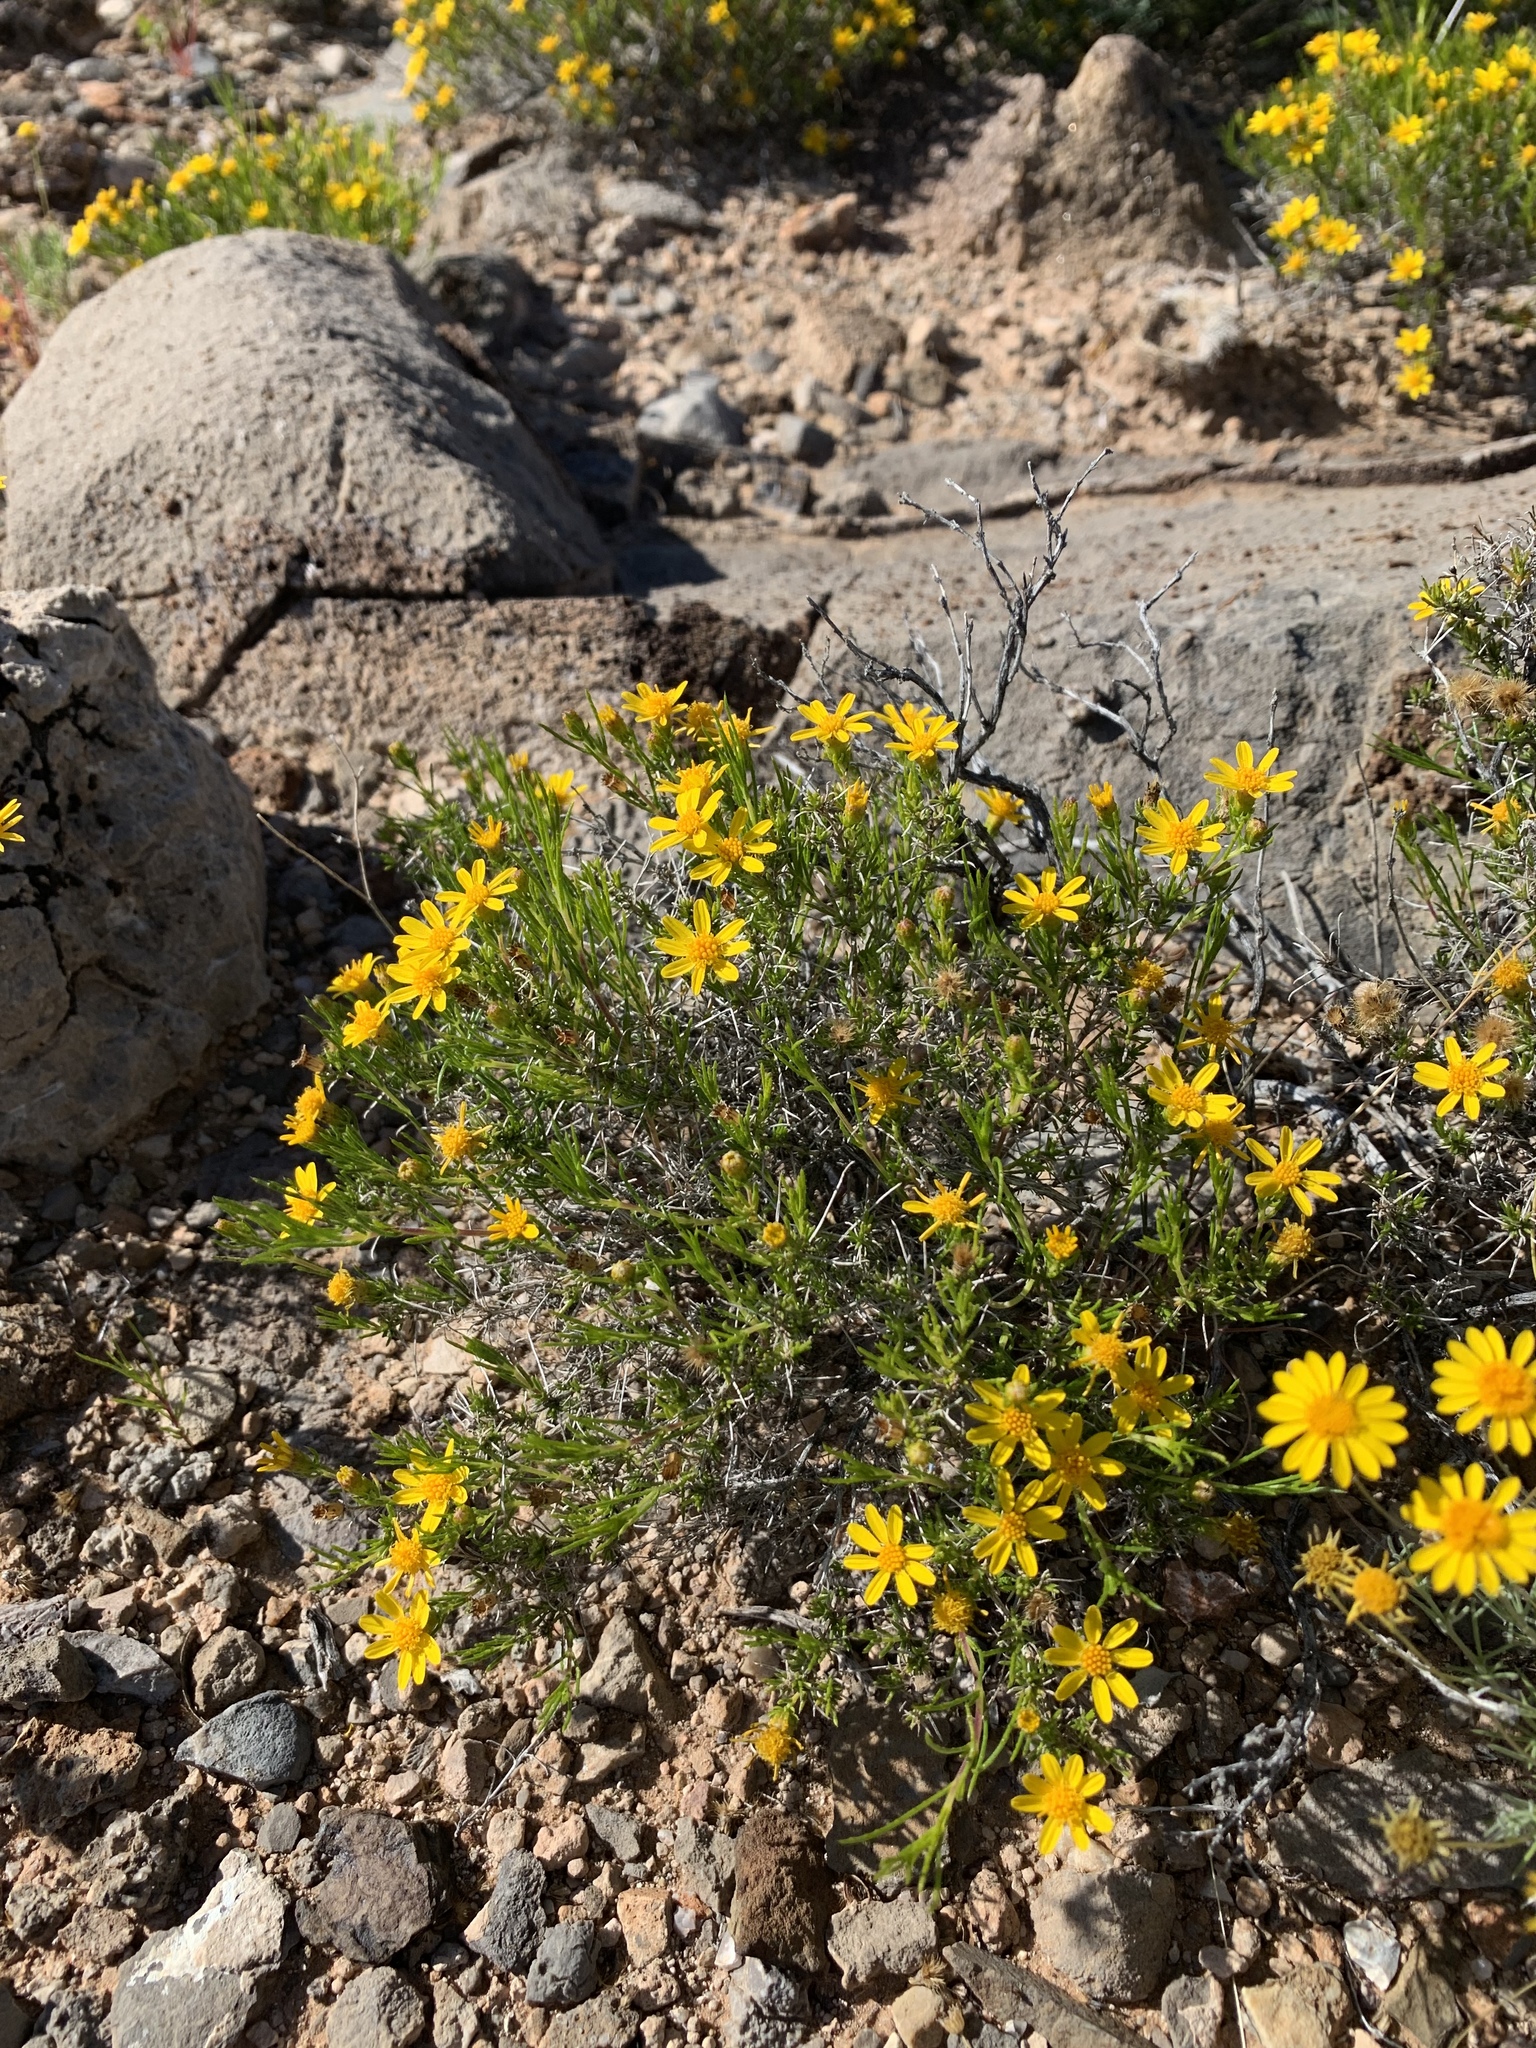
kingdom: Plantae
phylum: Tracheophyta
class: Magnoliopsida
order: Asterales
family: Asteraceae
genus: Thymophylla
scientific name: Thymophylla acerosa
